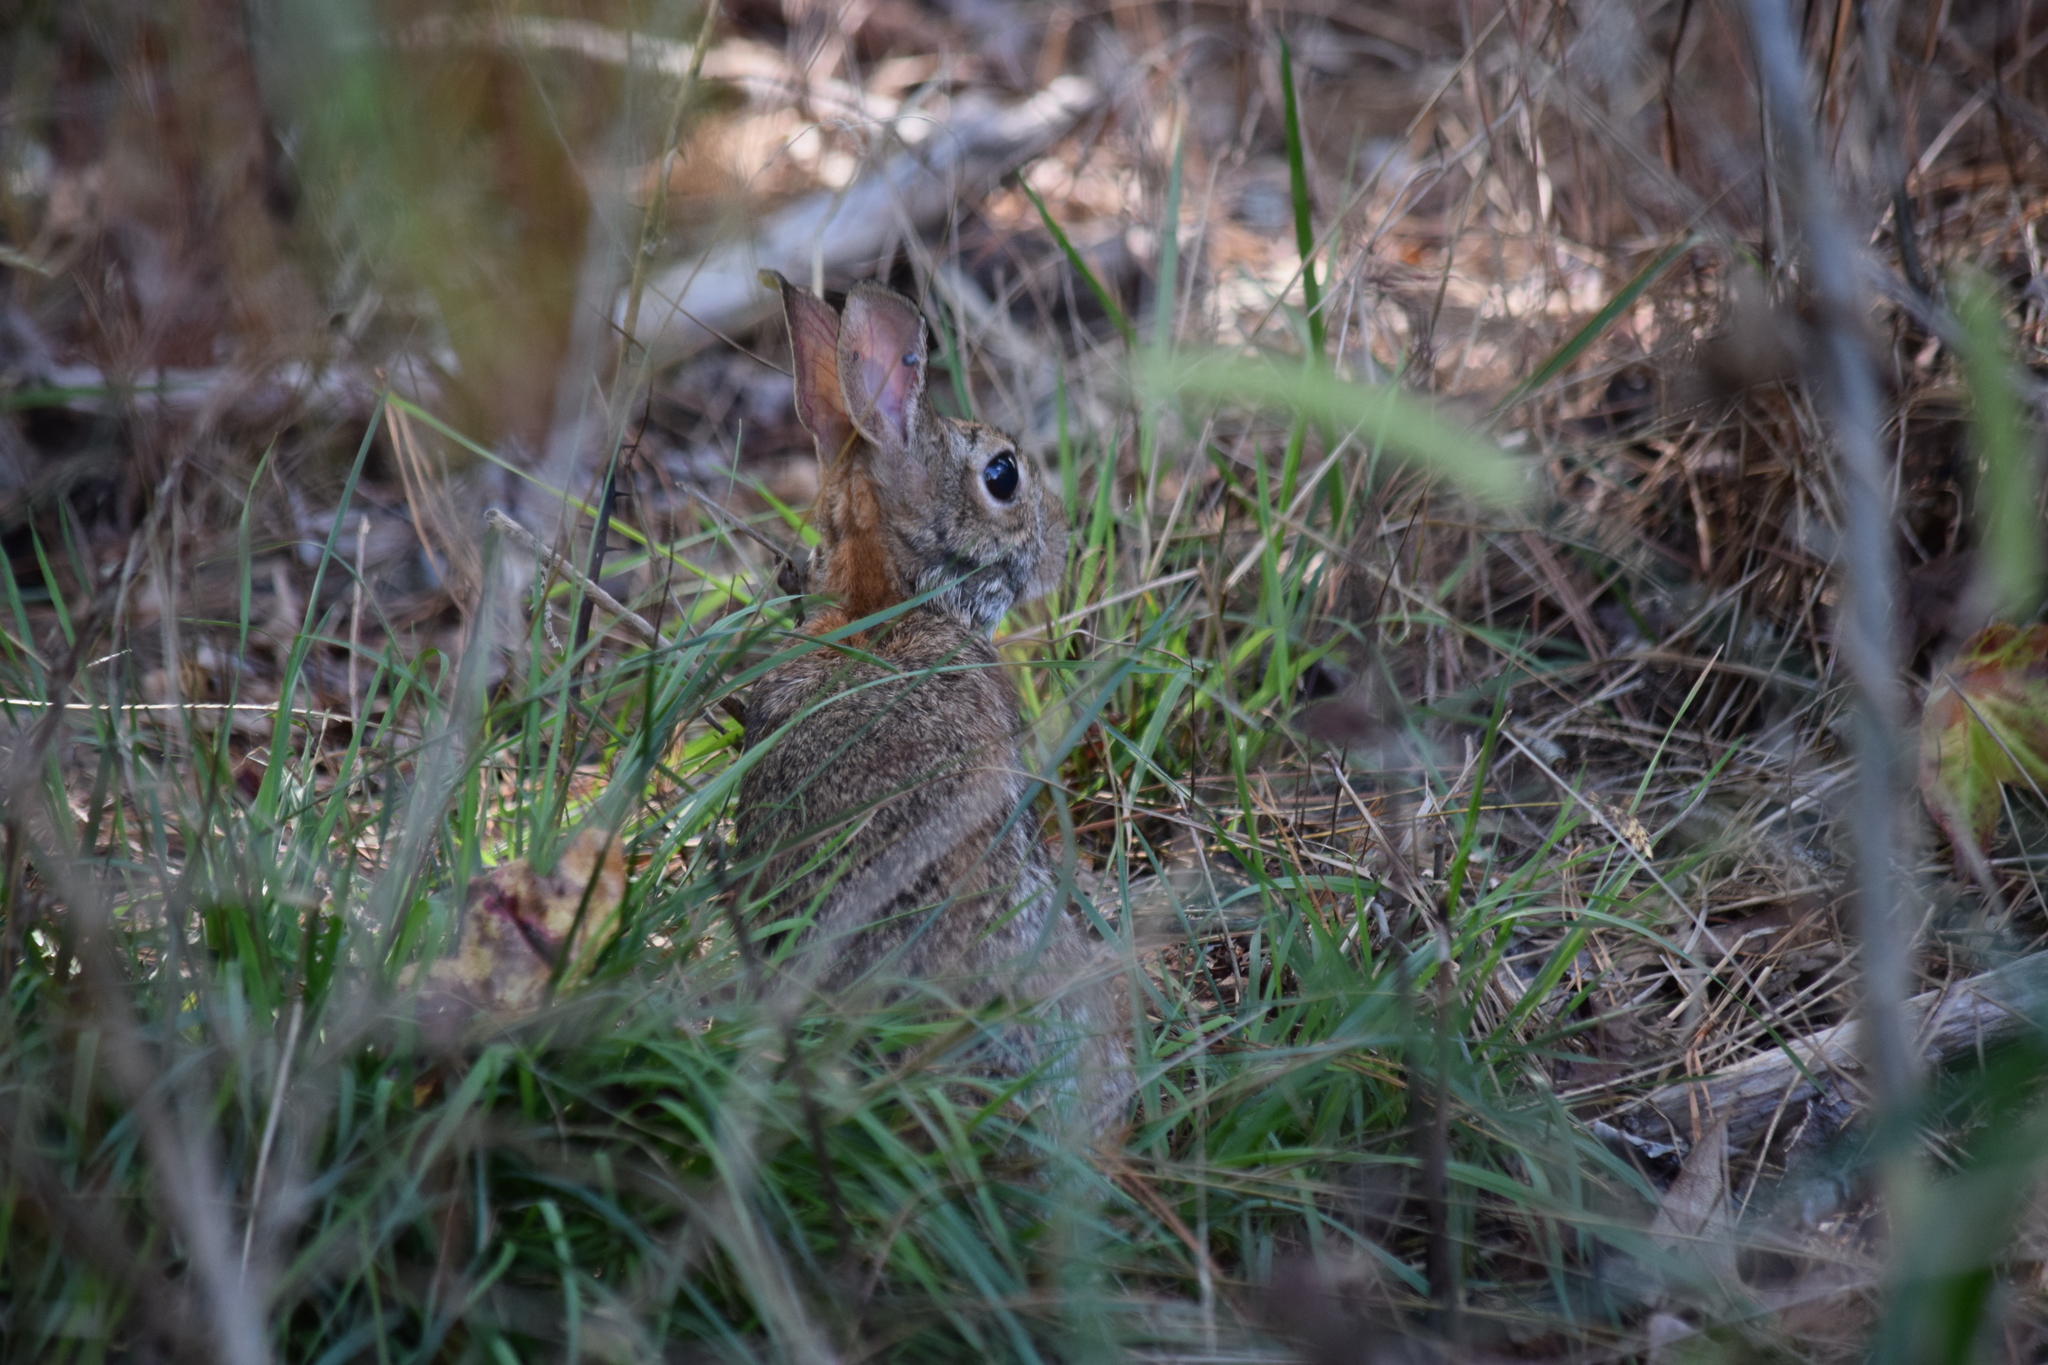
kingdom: Animalia
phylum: Chordata
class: Mammalia
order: Lagomorpha
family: Leporidae
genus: Sylvilagus
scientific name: Sylvilagus floridanus
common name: Eastern cottontail
